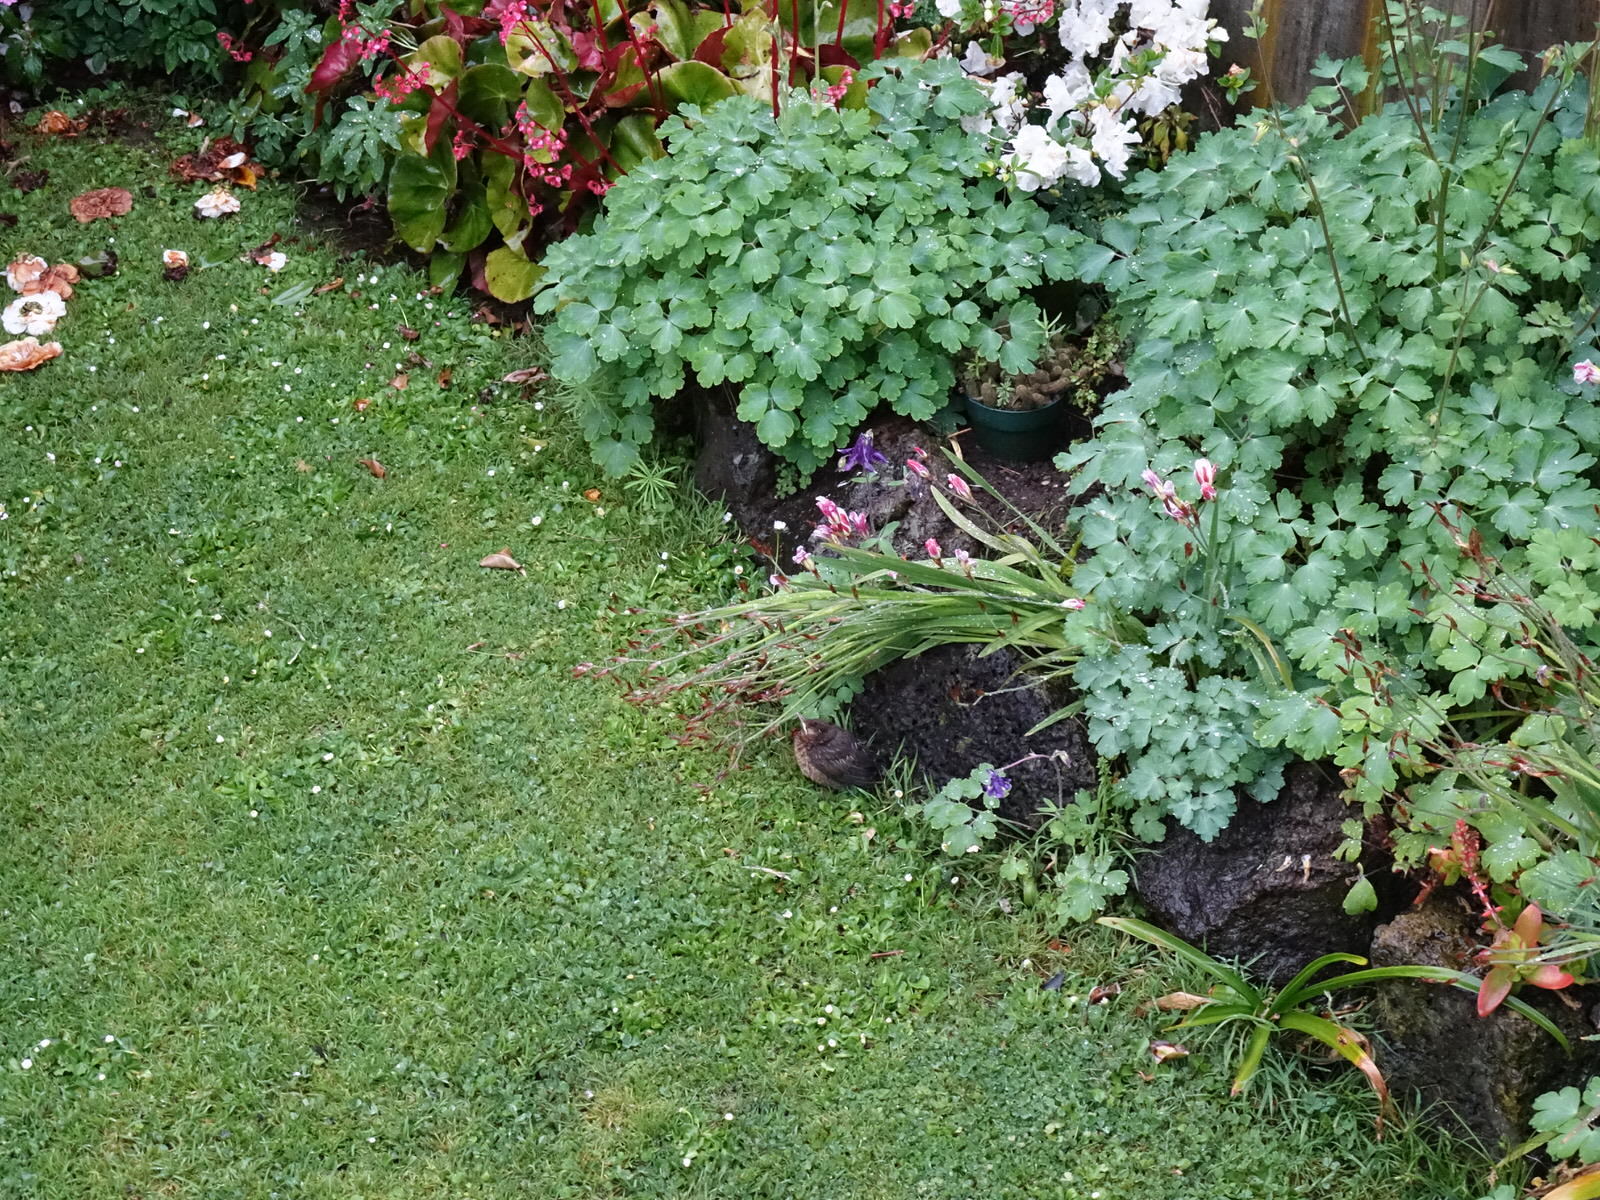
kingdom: Animalia
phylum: Chordata
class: Aves
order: Passeriformes
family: Turdidae
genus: Turdus
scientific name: Turdus merula
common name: Common blackbird
